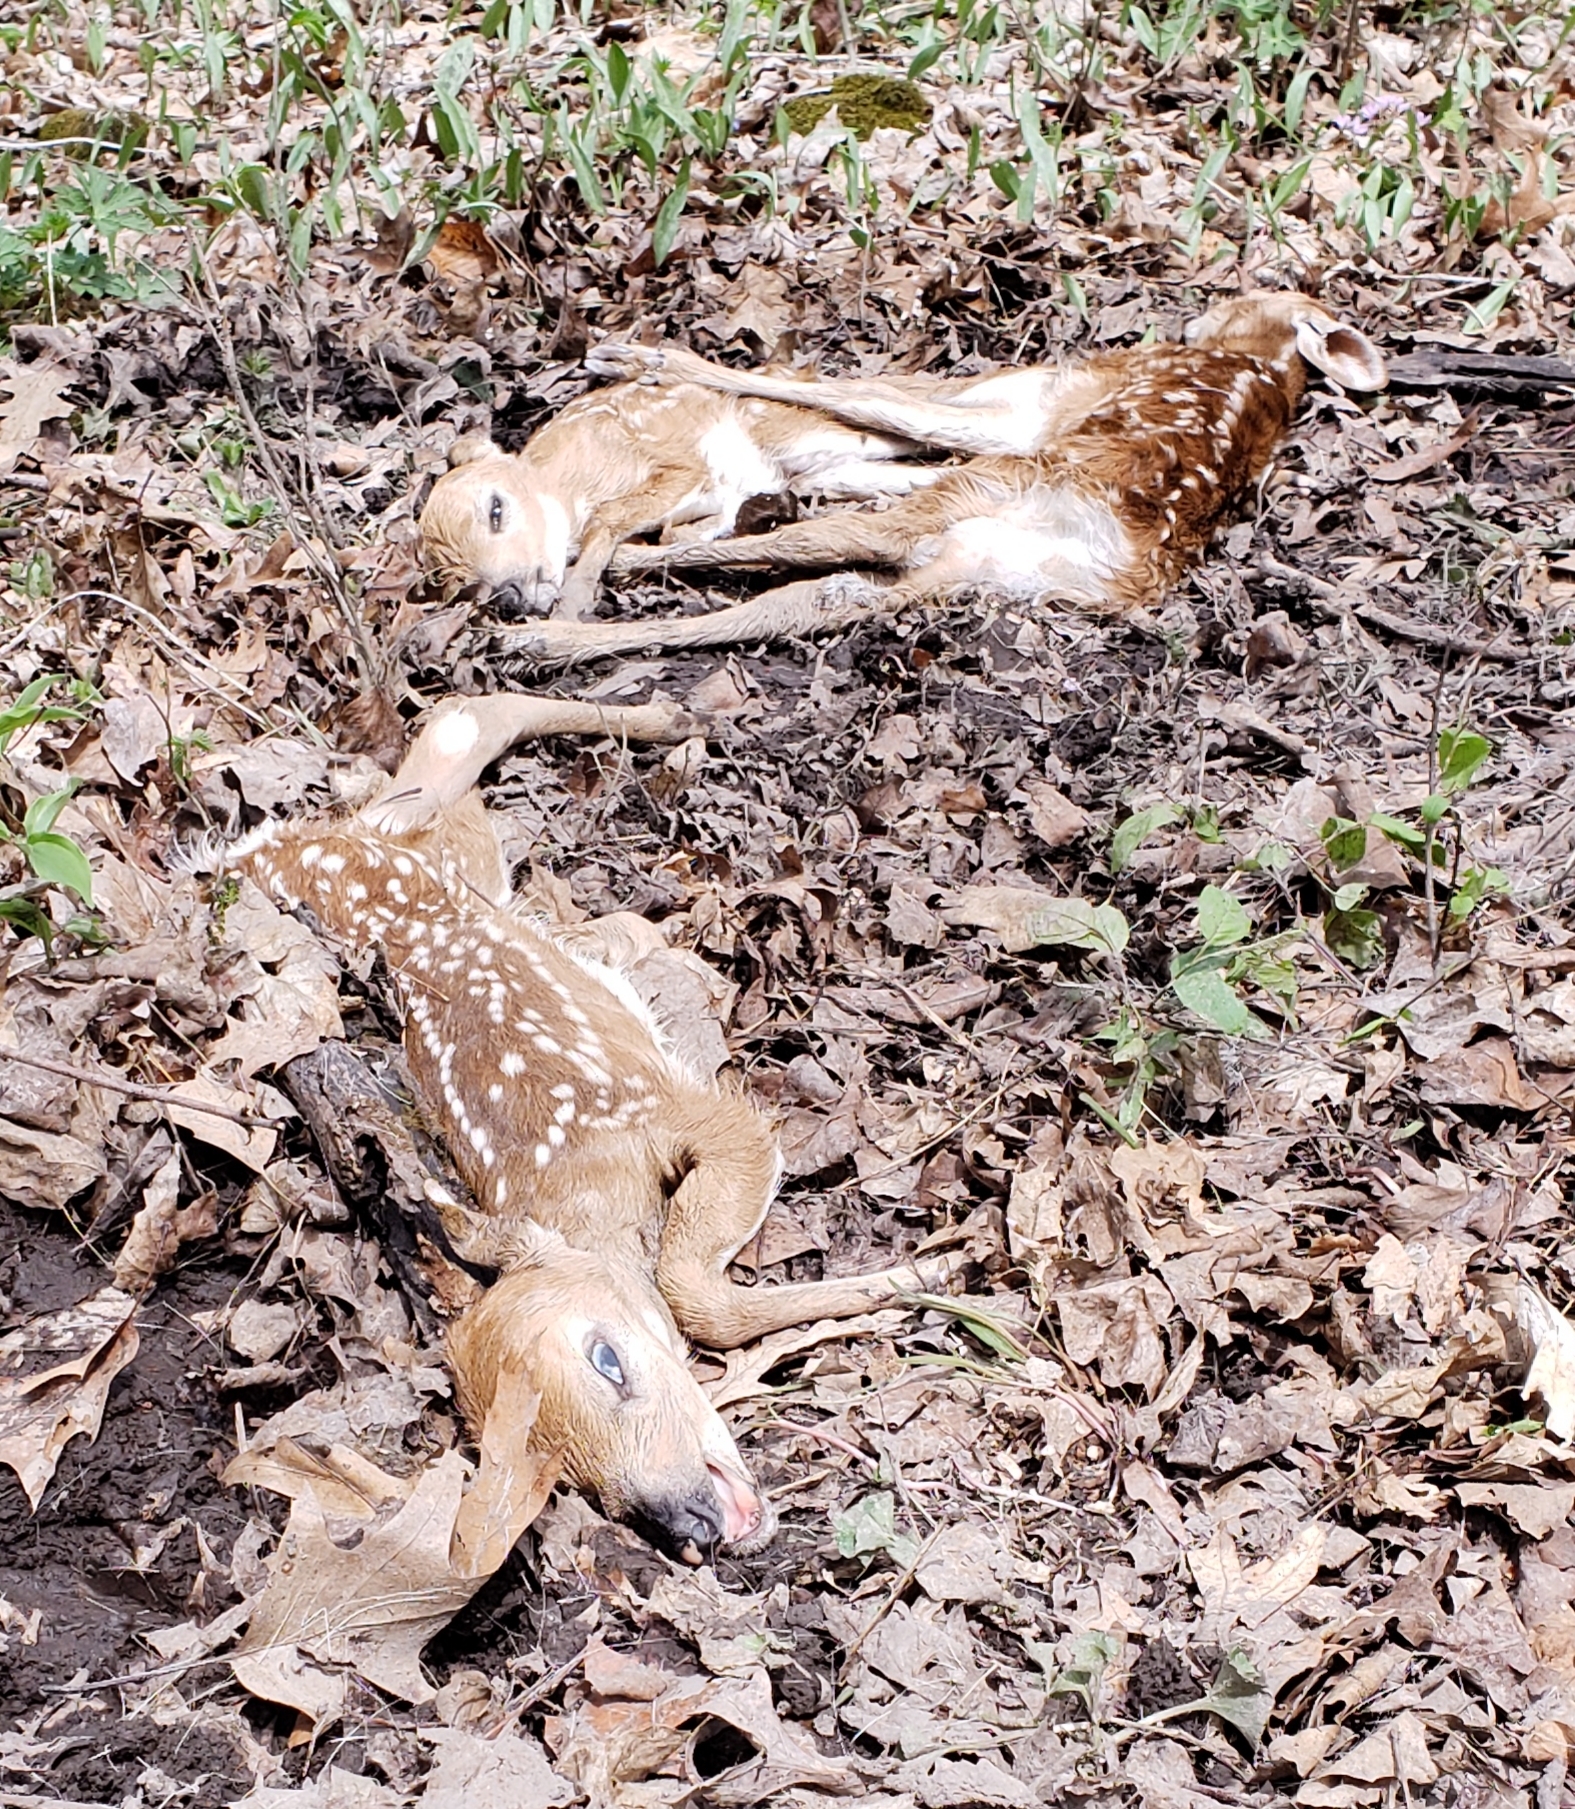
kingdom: Animalia
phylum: Chordata
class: Mammalia
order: Artiodactyla
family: Cervidae
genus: Odocoileus
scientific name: Odocoileus virginianus
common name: White-tailed deer
